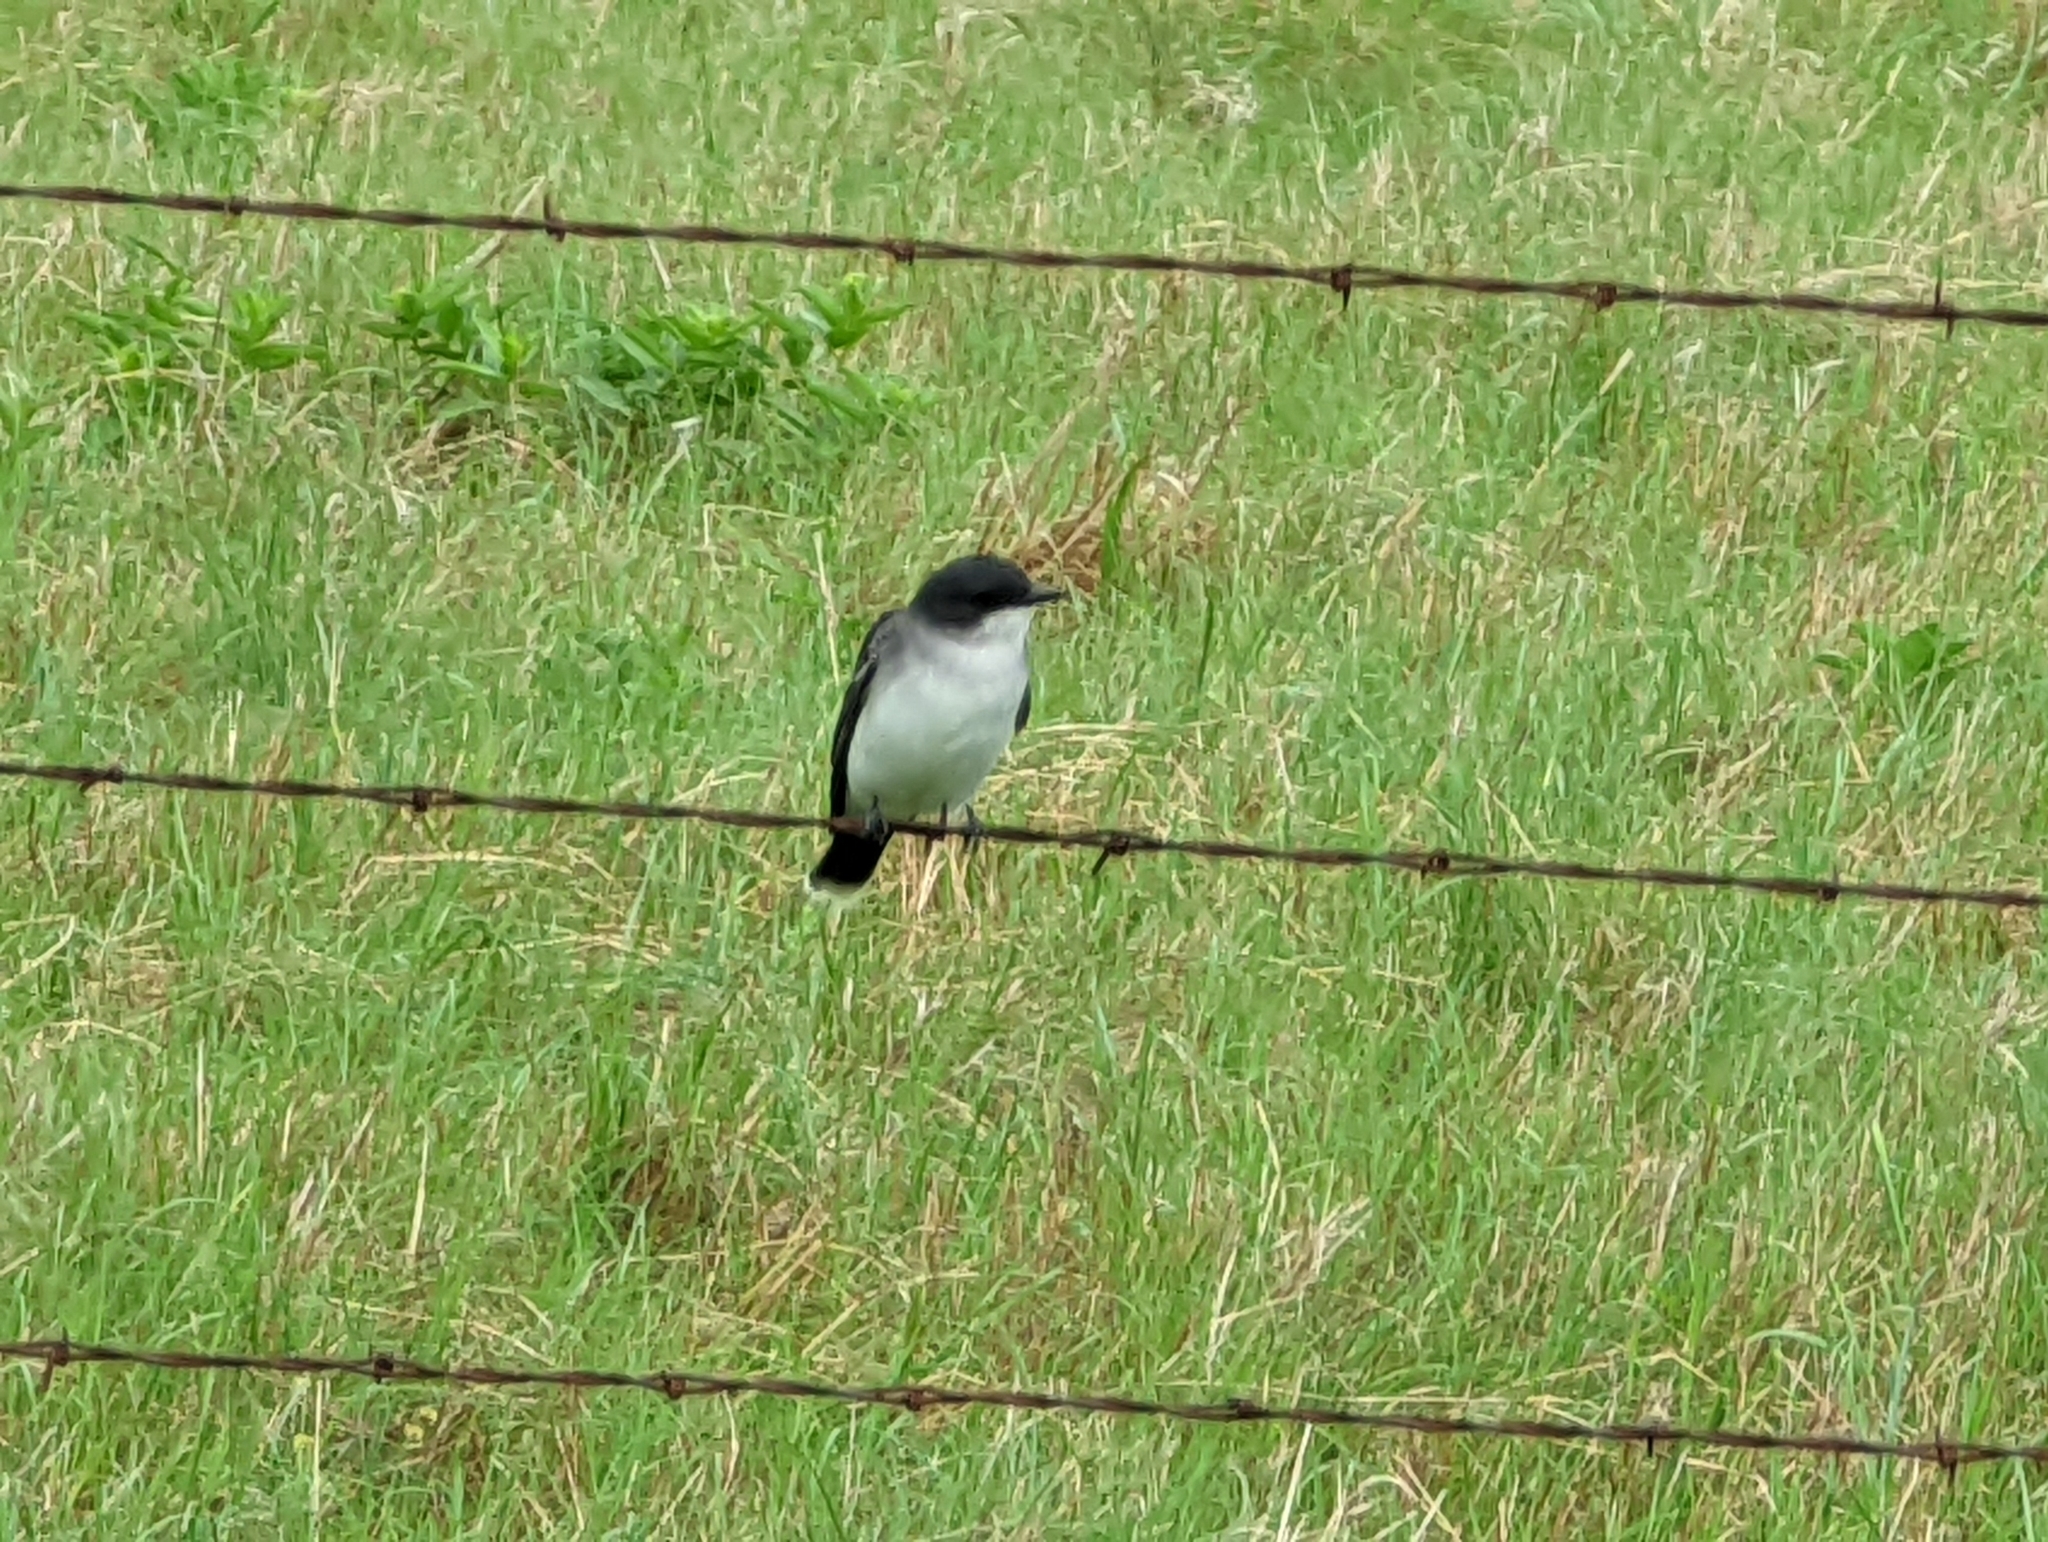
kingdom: Animalia
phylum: Chordata
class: Aves
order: Passeriformes
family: Tyrannidae
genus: Tyrannus
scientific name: Tyrannus tyrannus
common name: Eastern kingbird
